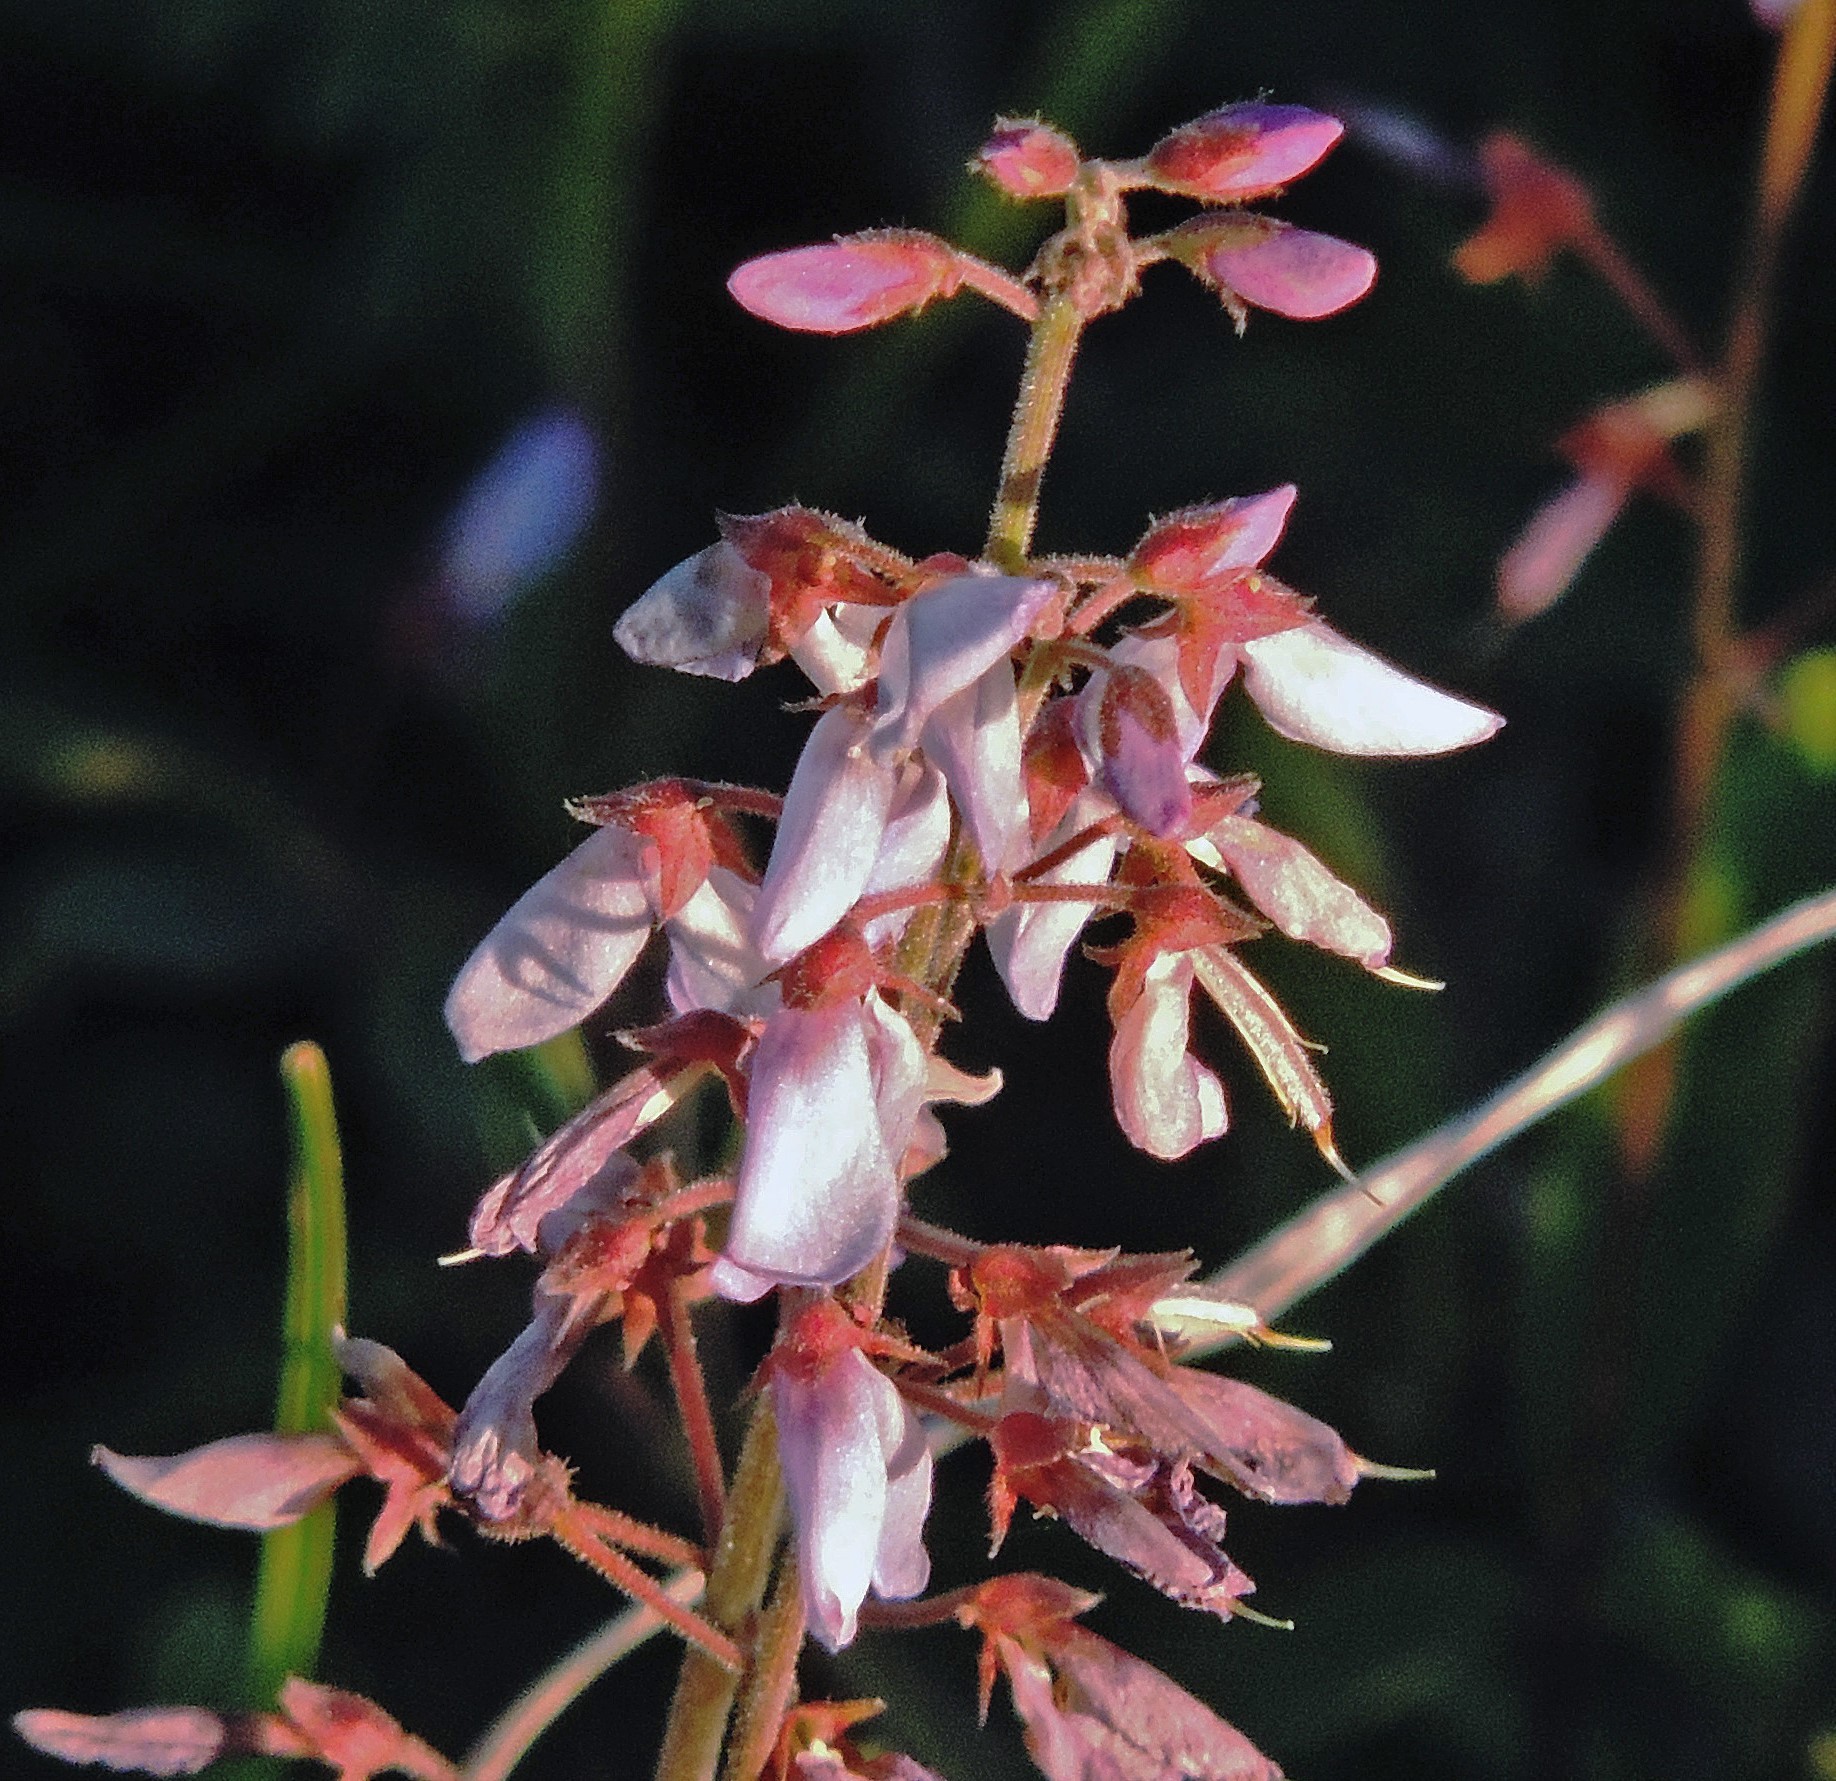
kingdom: Plantae
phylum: Tracheophyta
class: Magnoliopsida
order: Fabales
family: Fabaceae
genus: Desmodium
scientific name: Desmodium uncinatum
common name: Silverleaf desmodium
